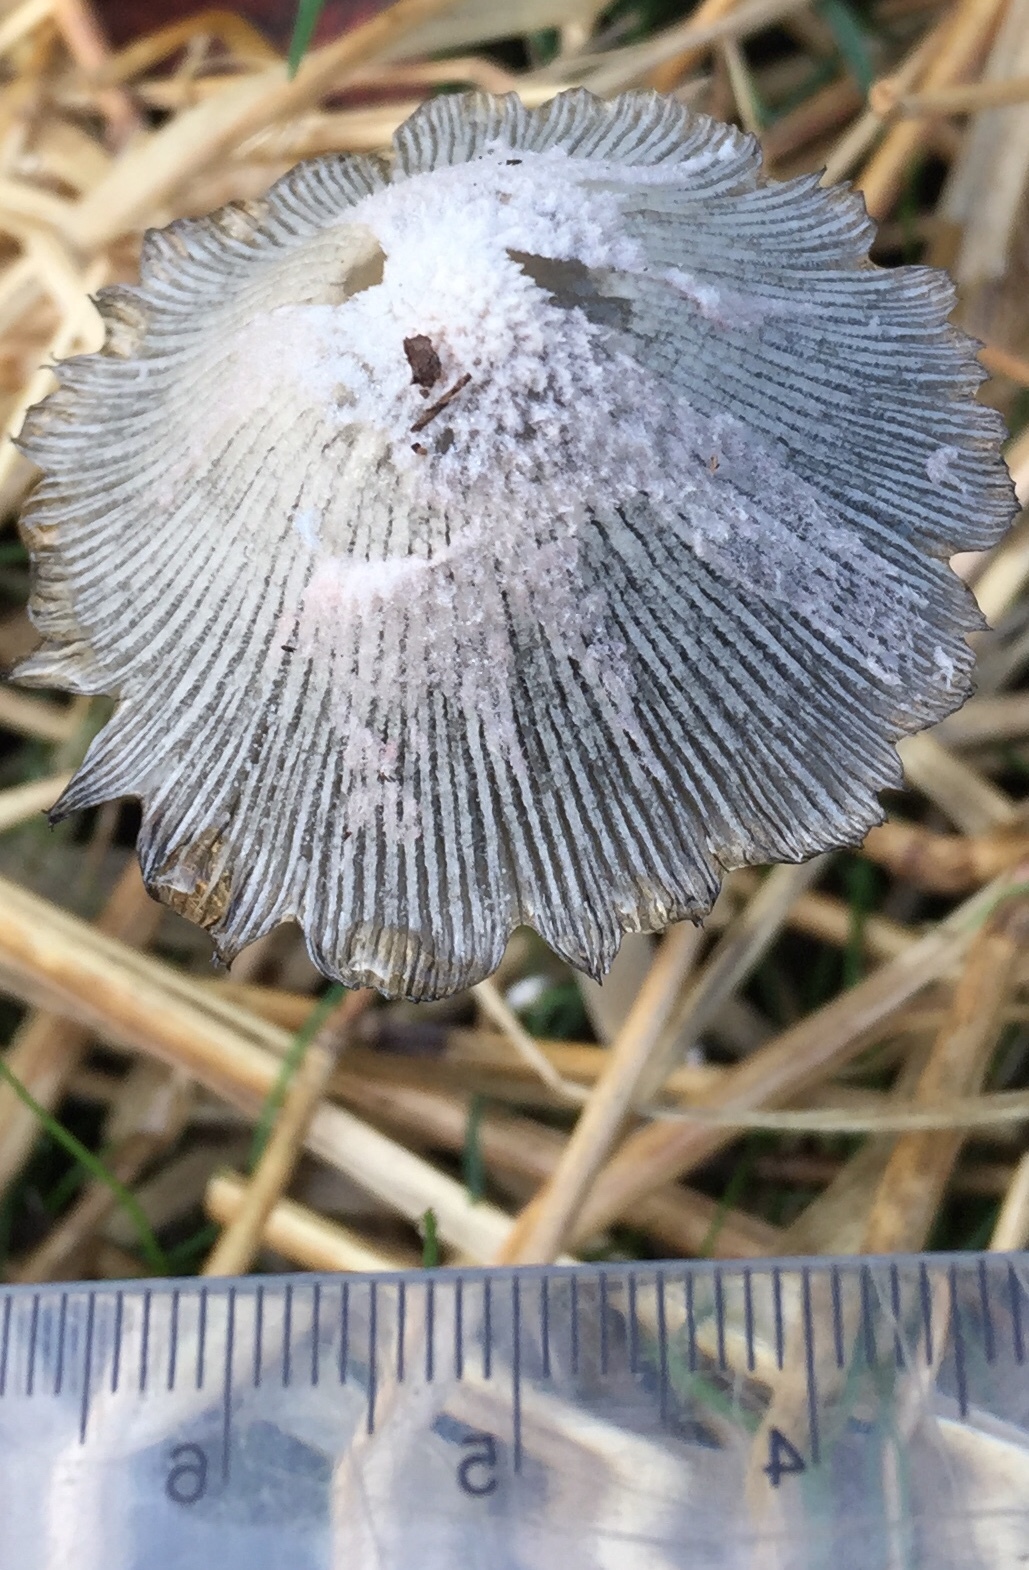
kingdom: Fungi
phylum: Basidiomycota
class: Agaricomycetes
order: Agaricales
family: Psathyrellaceae
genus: Coprinopsis
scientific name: Coprinopsis lagopus
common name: Hare'sfoot inkcap
